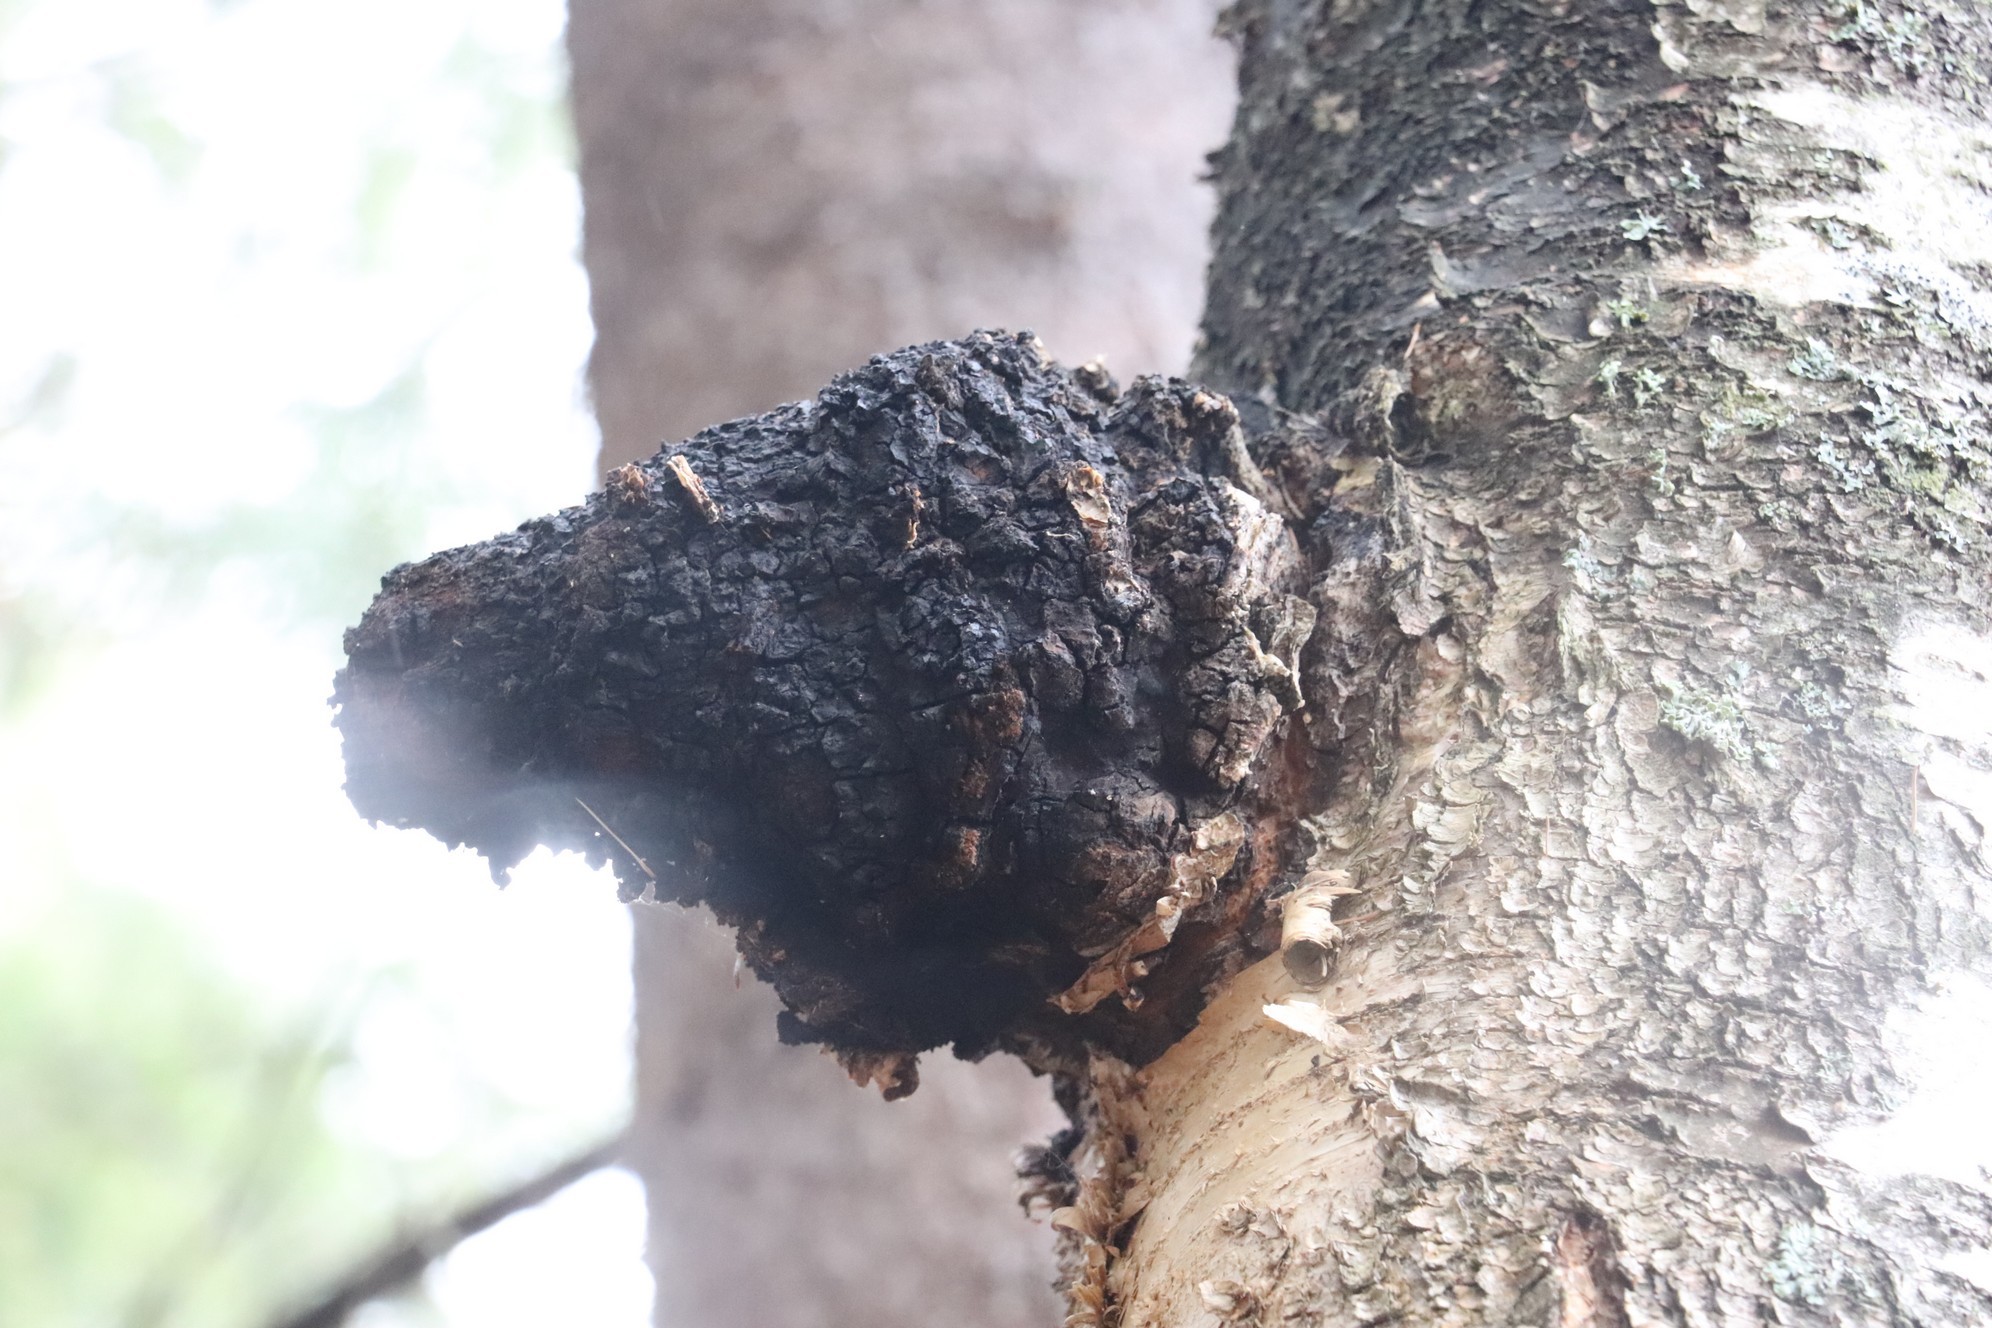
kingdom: Fungi
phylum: Basidiomycota
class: Agaricomycetes
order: Hymenochaetales
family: Hymenochaetaceae
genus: Inonotus
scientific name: Inonotus obliquus
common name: Chaga
